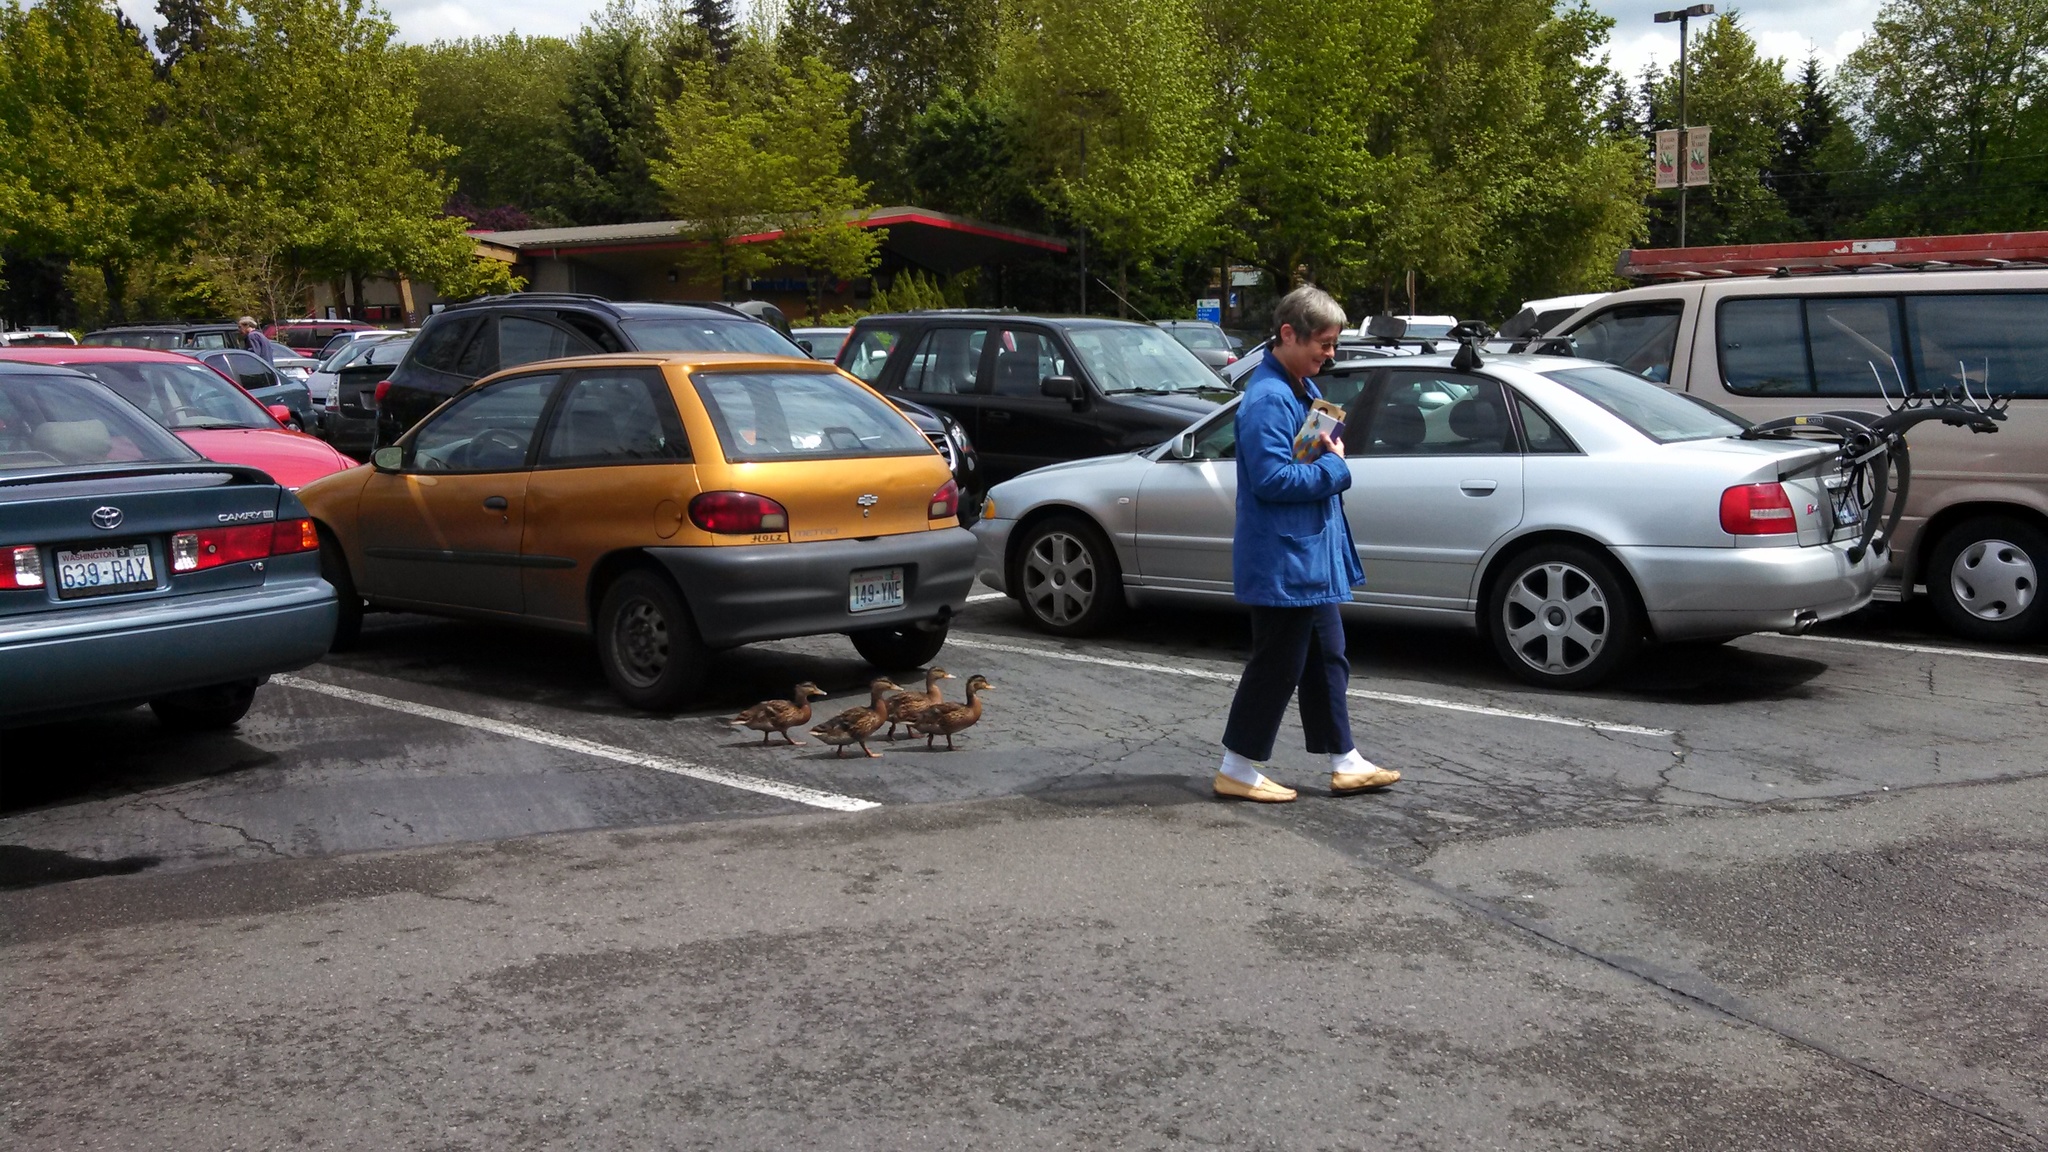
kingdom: Animalia
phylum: Chordata
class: Aves
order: Anseriformes
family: Anatidae
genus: Anas
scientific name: Anas platyrhynchos
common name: Mallard
